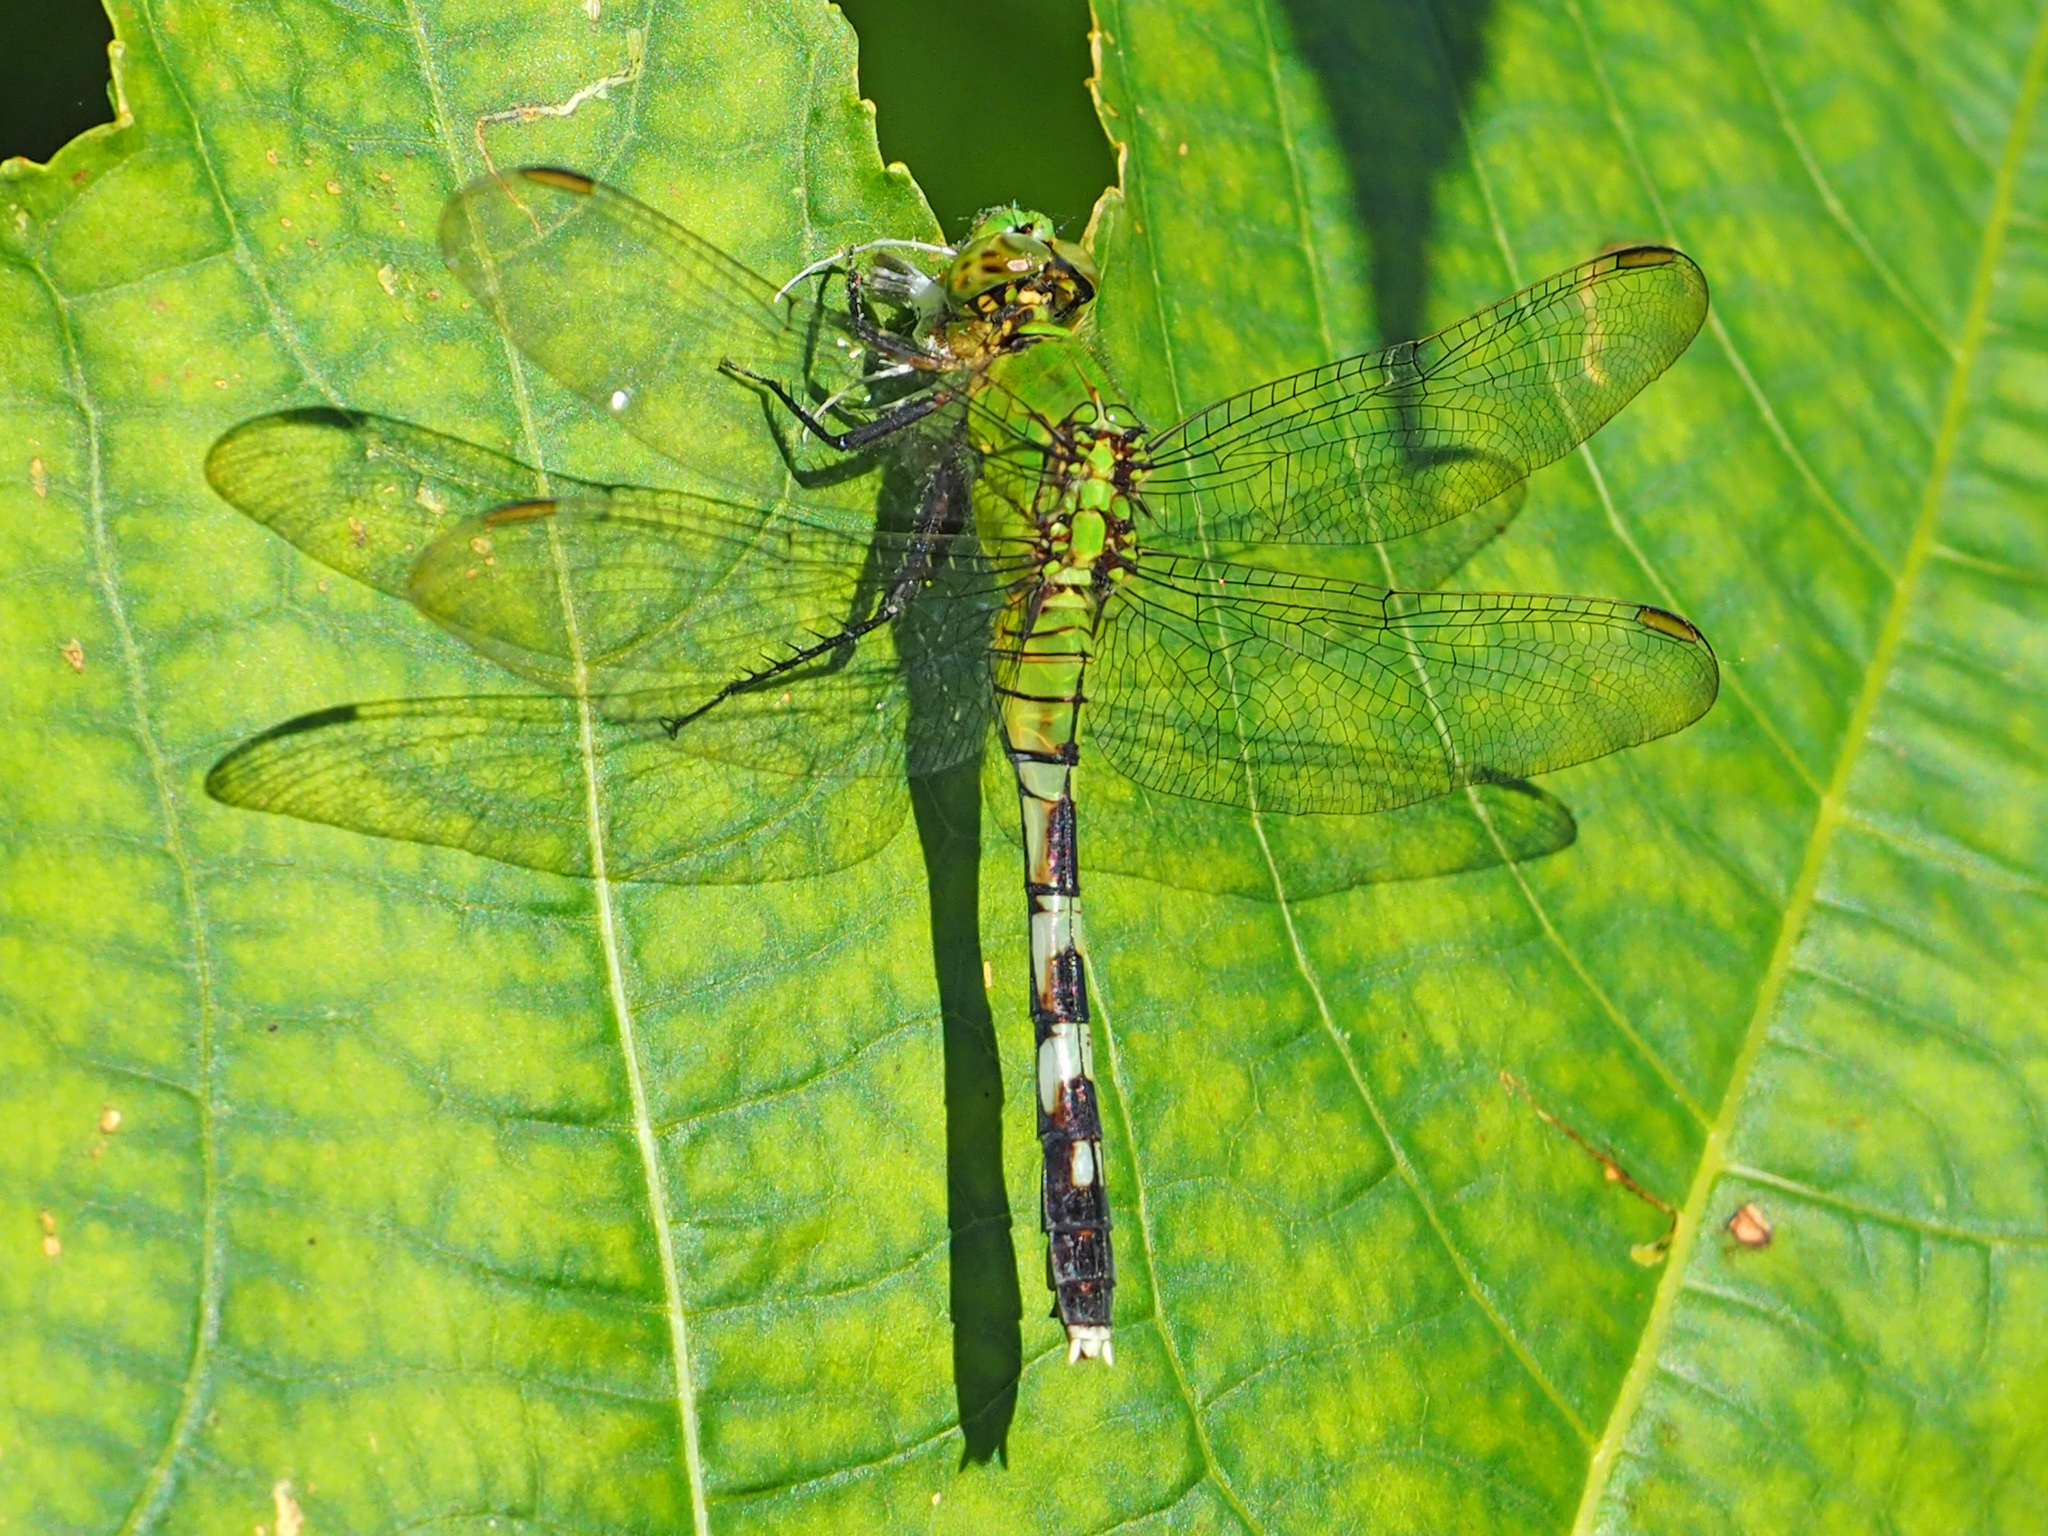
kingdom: Animalia
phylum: Arthropoda
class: Insecta
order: Odonata
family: Libellulidae
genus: Erythemis
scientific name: Erythemis simplicicollis
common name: Eastern pondhawk
